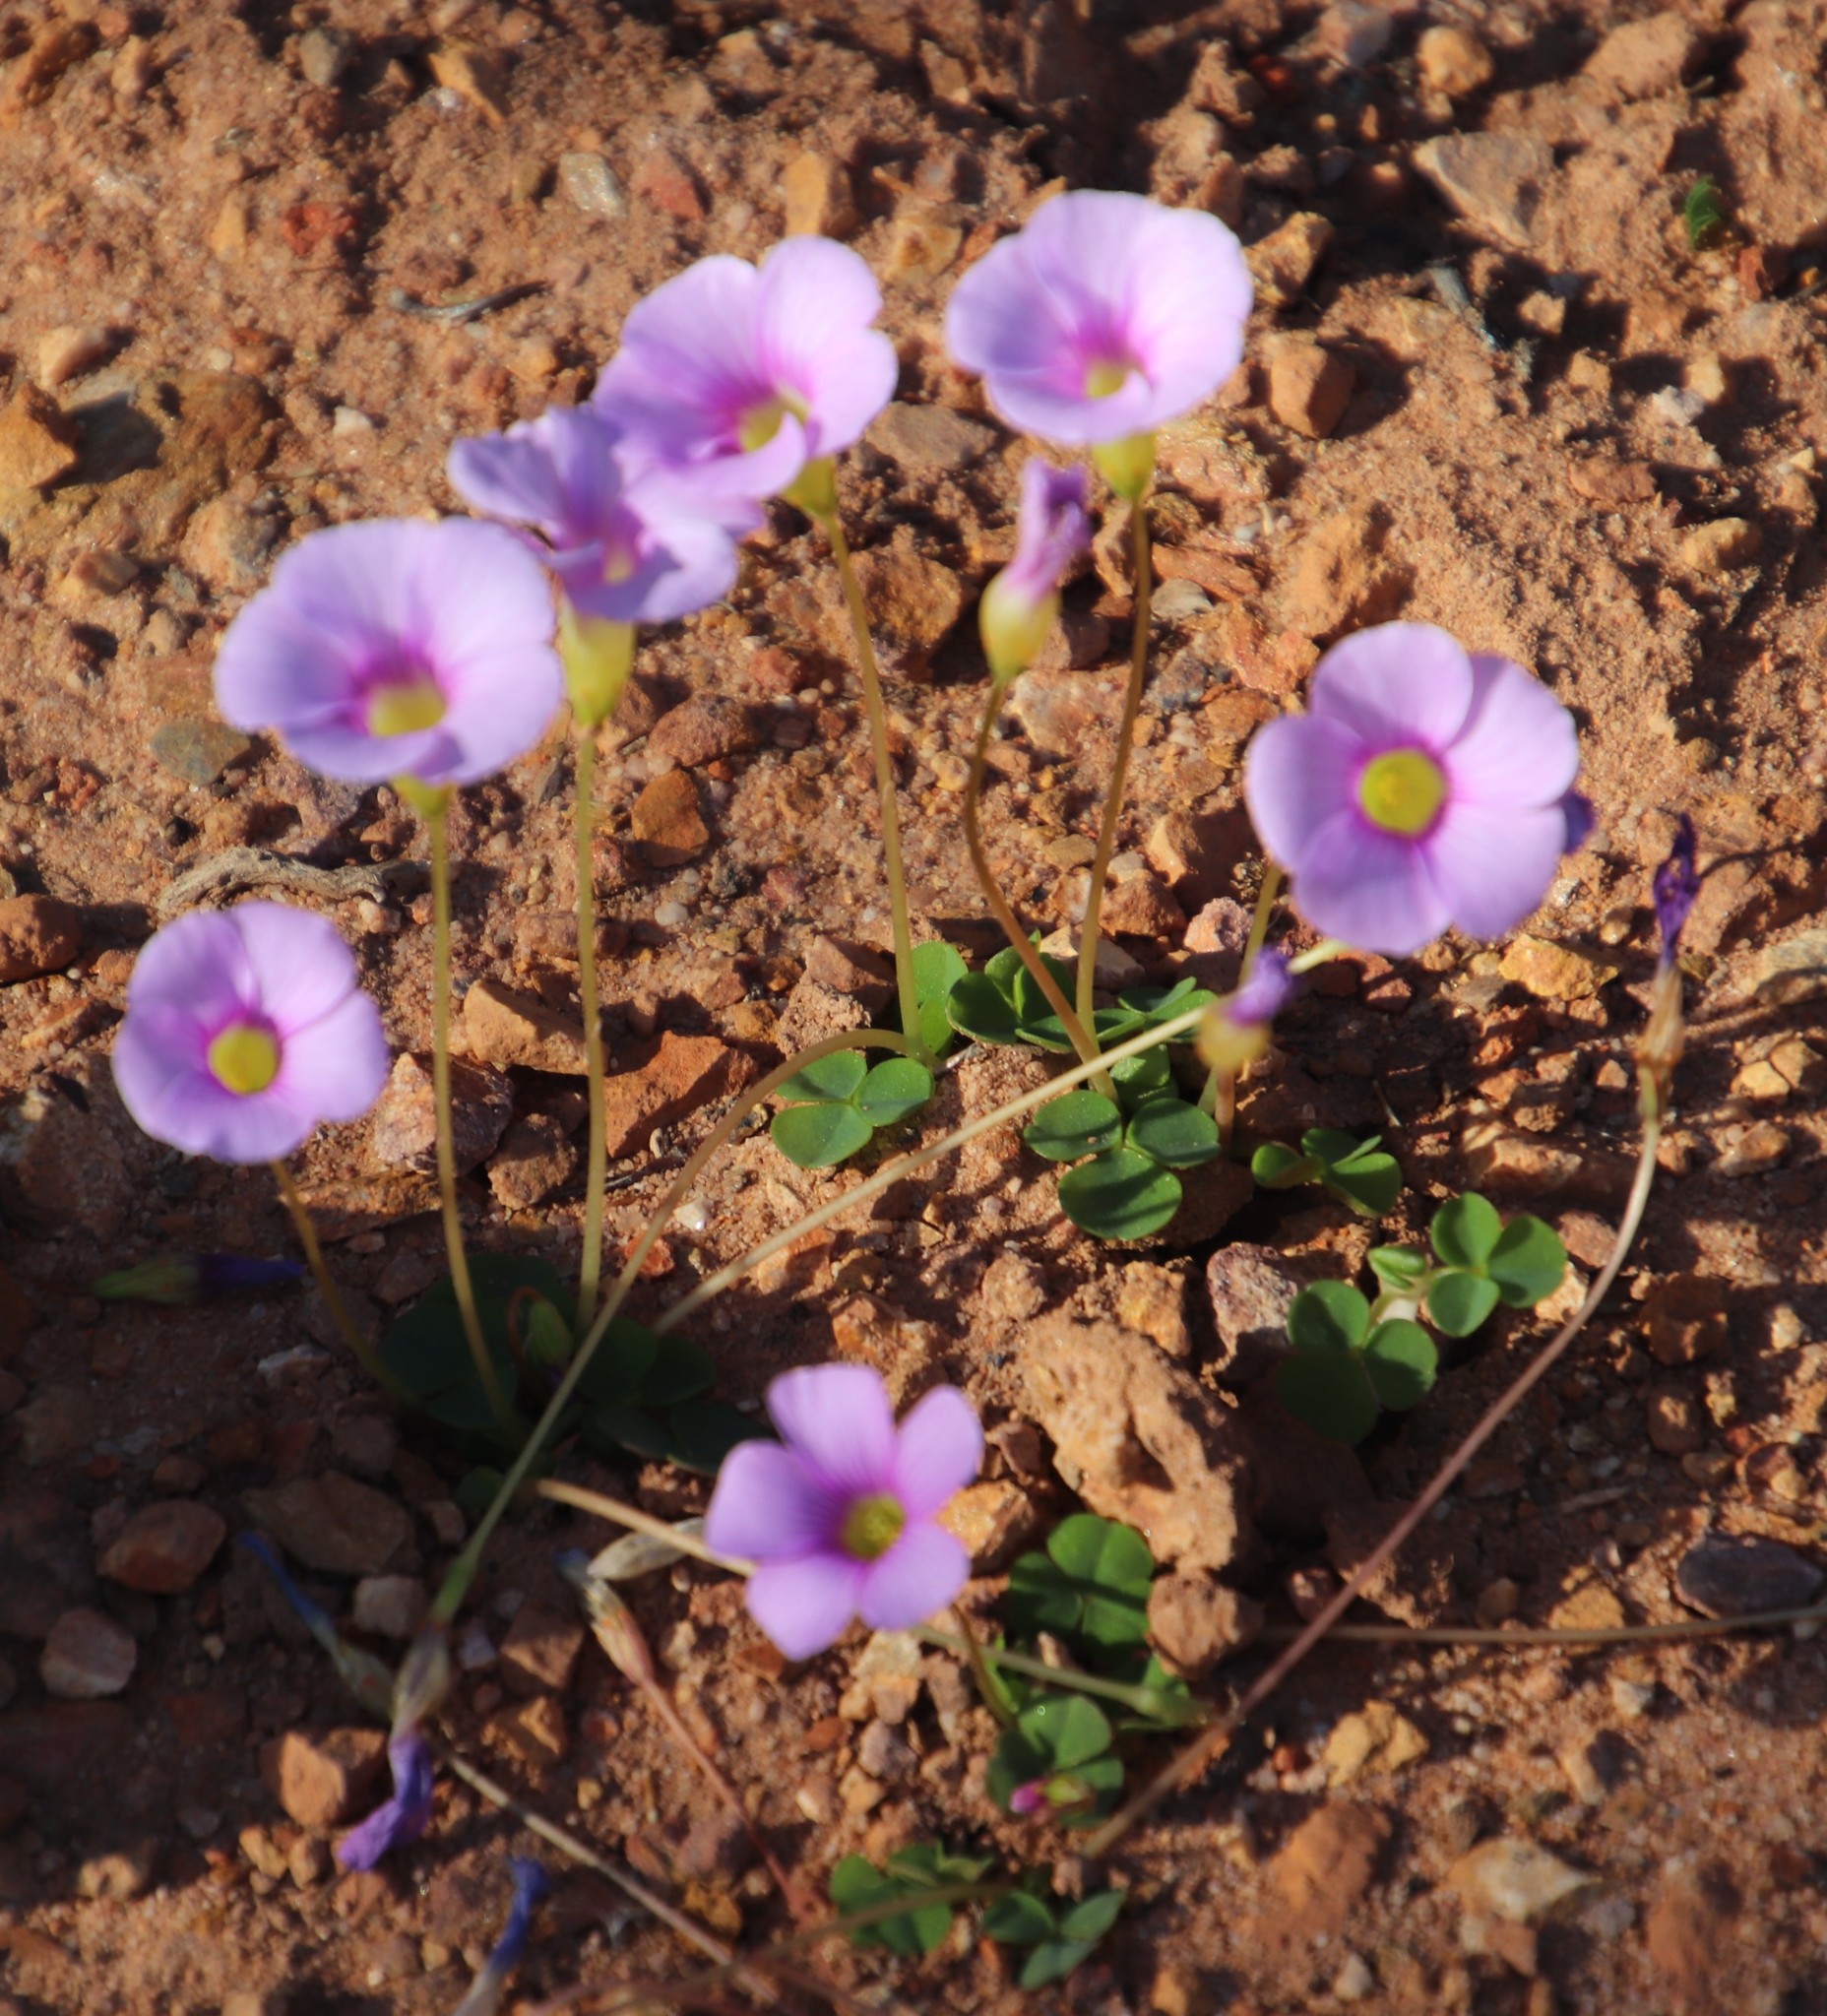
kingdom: Plantae
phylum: Tracheophyta
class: Magnoliopsida
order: Oxalidales
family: Oxalidaceae
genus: Oxalis
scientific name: Oxalis commutata
